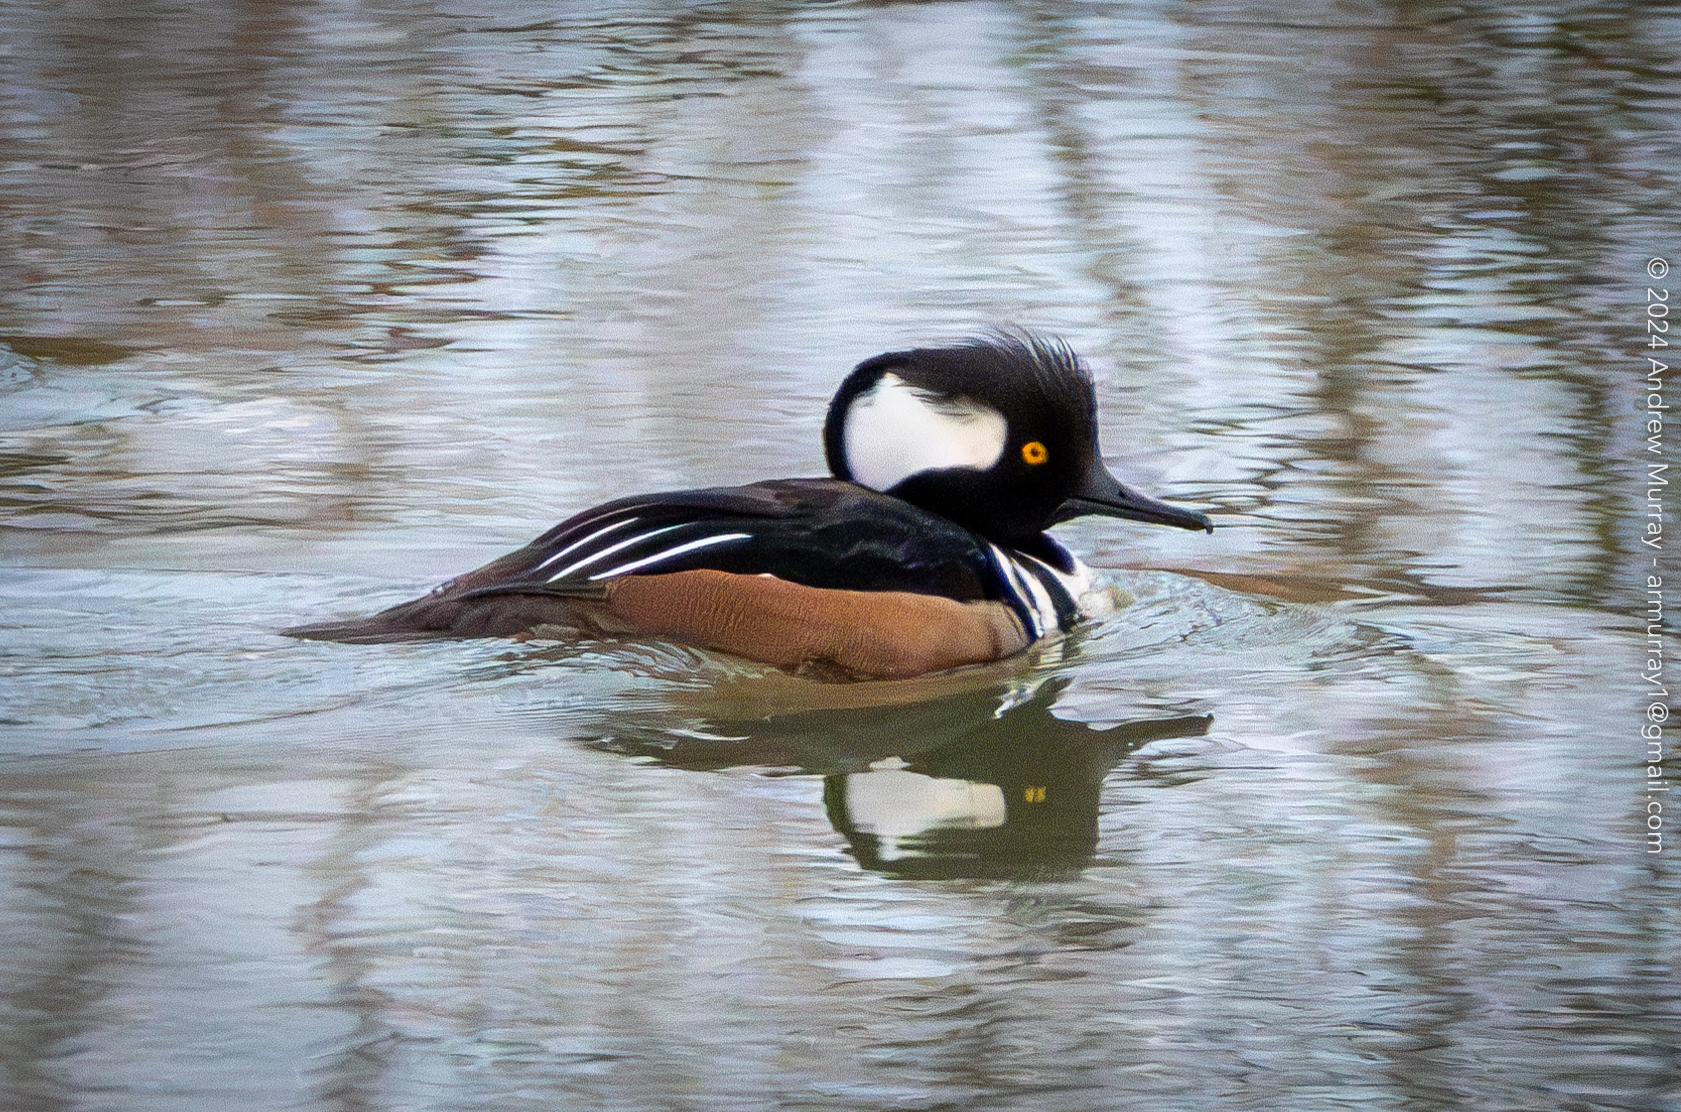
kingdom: Animalia
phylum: Chordata
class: Aves
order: Anseriformes
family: Anatidae
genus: Lophodytes
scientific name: Lophodytes cucullatus
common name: Hooded merganser
